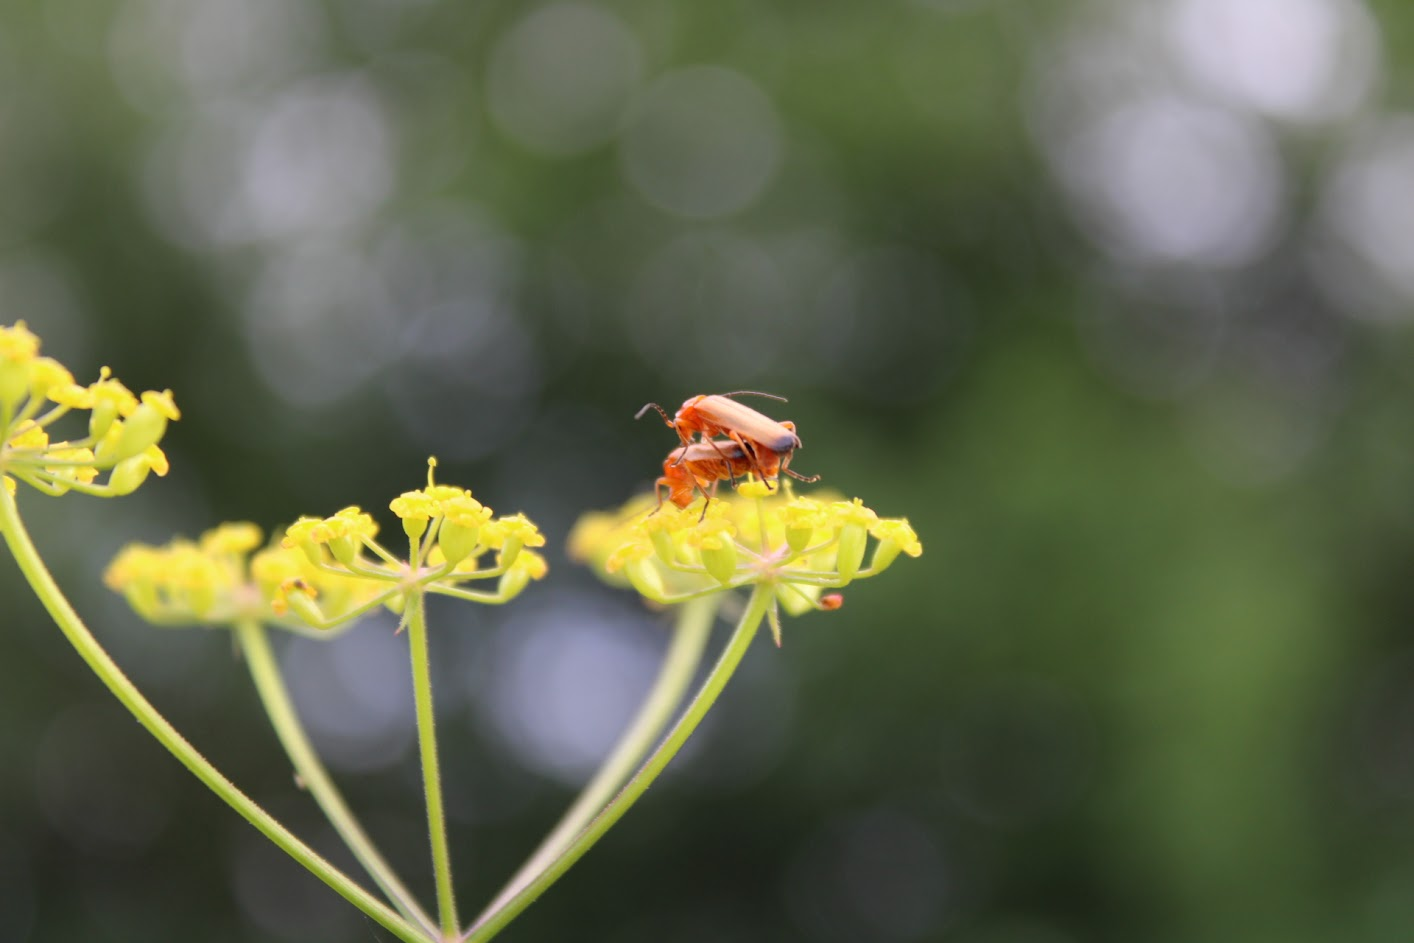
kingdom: Animalia
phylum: Arthropoda
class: Insecta
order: Coleoptera
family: Cantharidae
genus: Rhagonycha
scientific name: Rhagonycha fulva
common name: Common red soldier beetle
